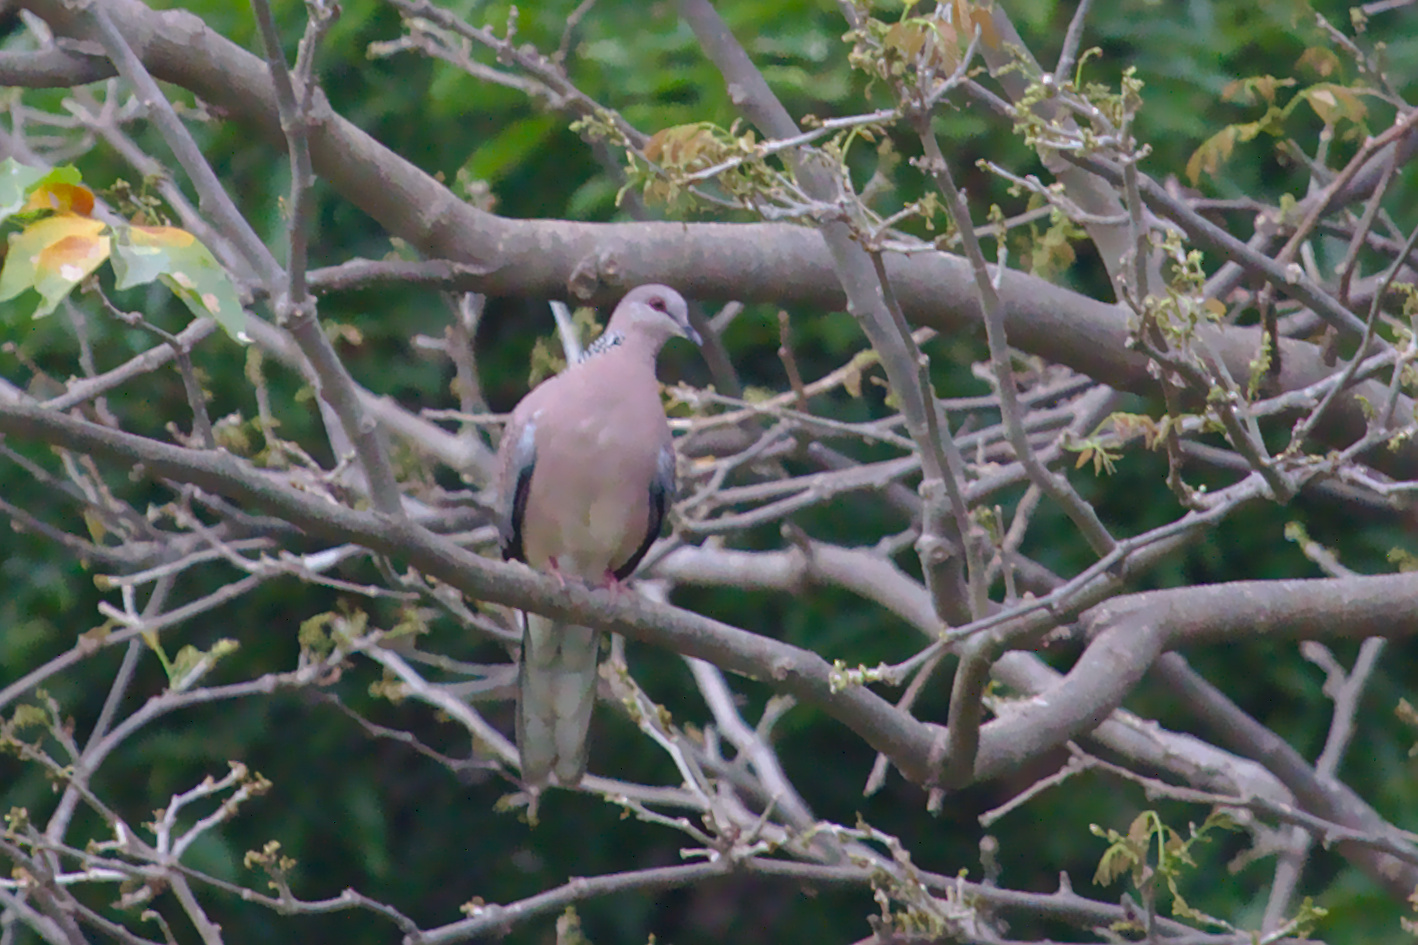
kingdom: Animalia
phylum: Chordata
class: Aves
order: Columbiformes
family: Columbidae
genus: Spilopelia
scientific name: Spilopelia chinensis
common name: Spotted dove
